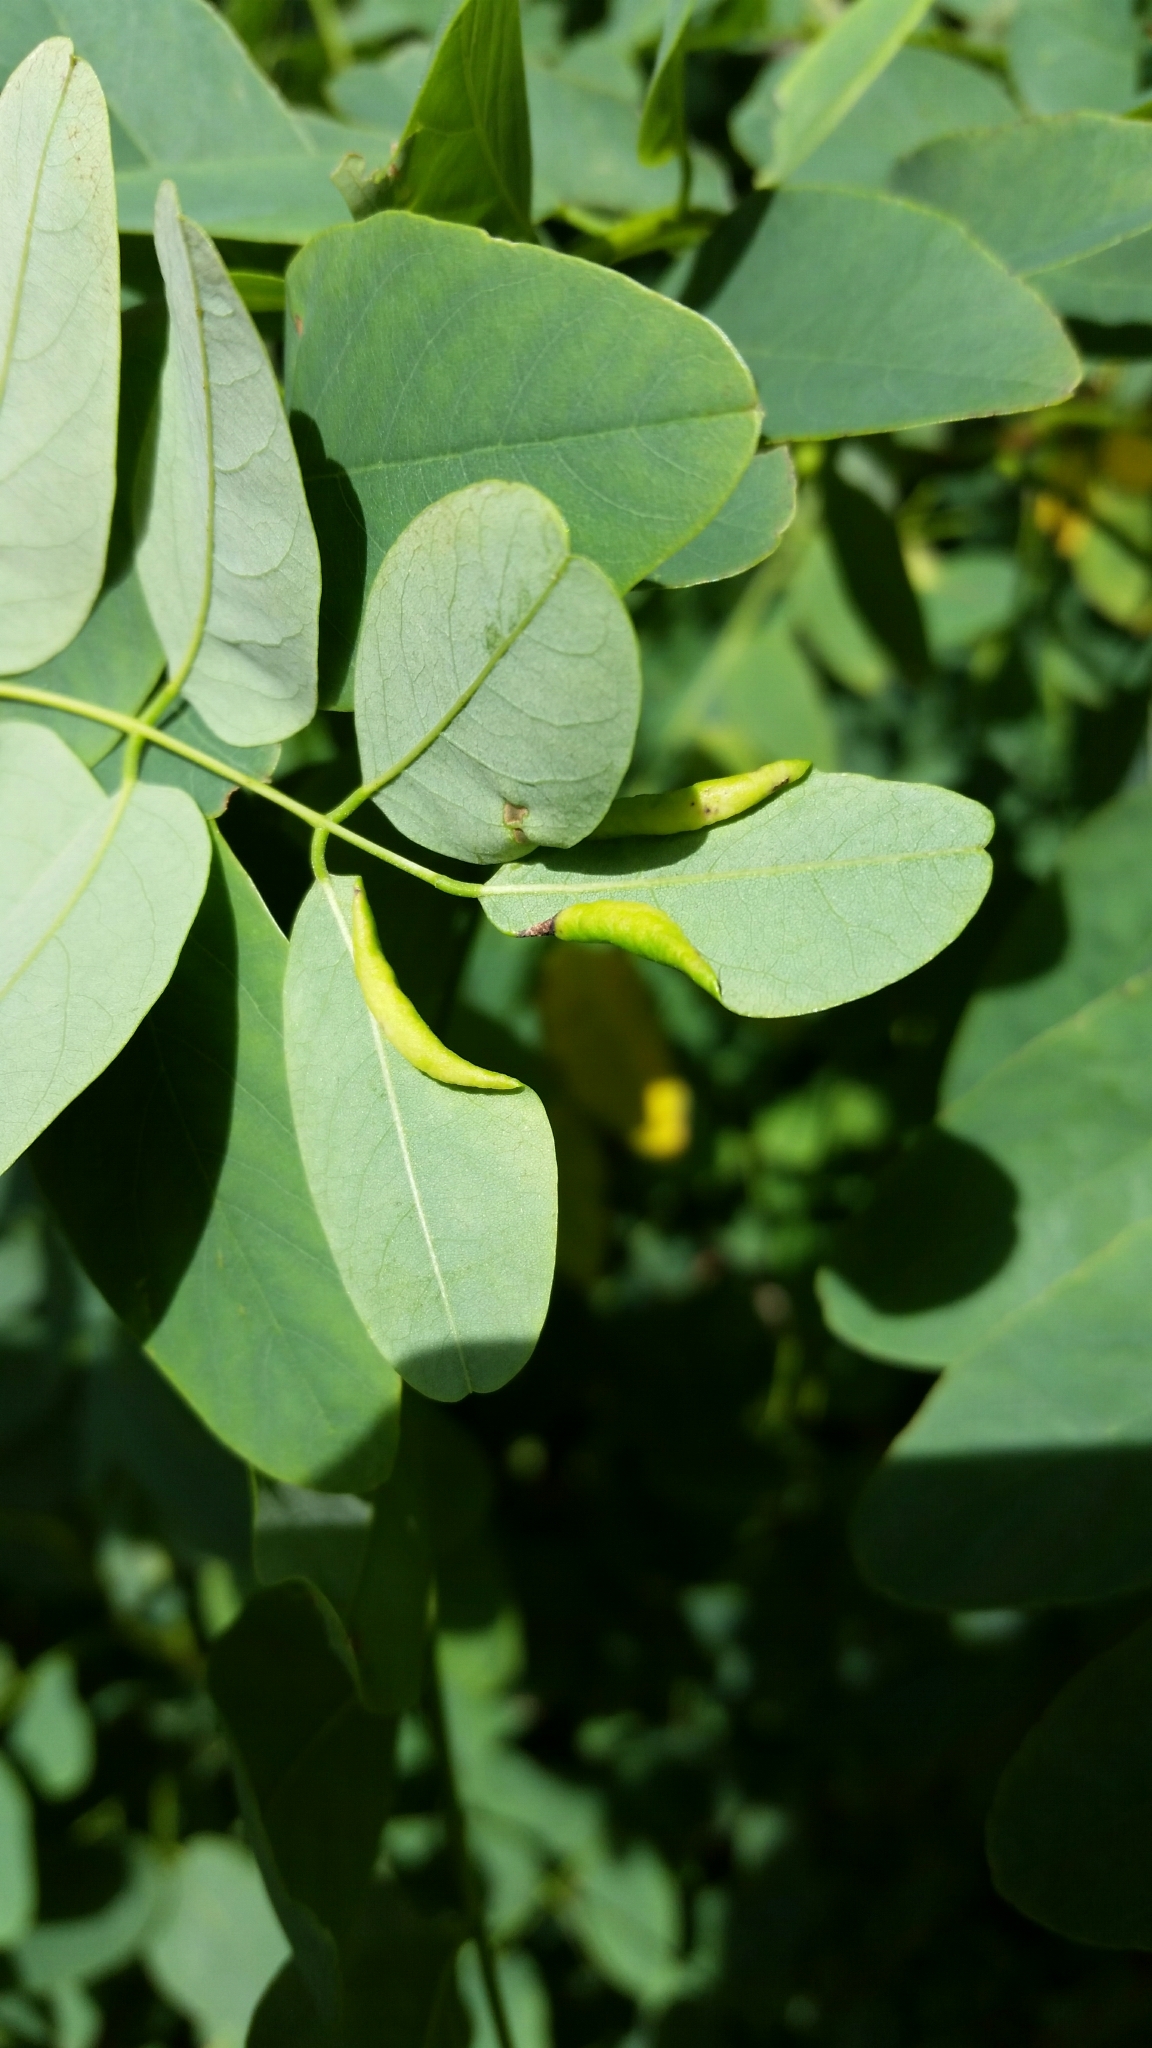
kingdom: Animalia
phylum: Arthropoda
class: Insecta
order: Diptera
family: Cecidomyiidae
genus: Obolodiplosis
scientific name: Obolodiplosis robiniae
